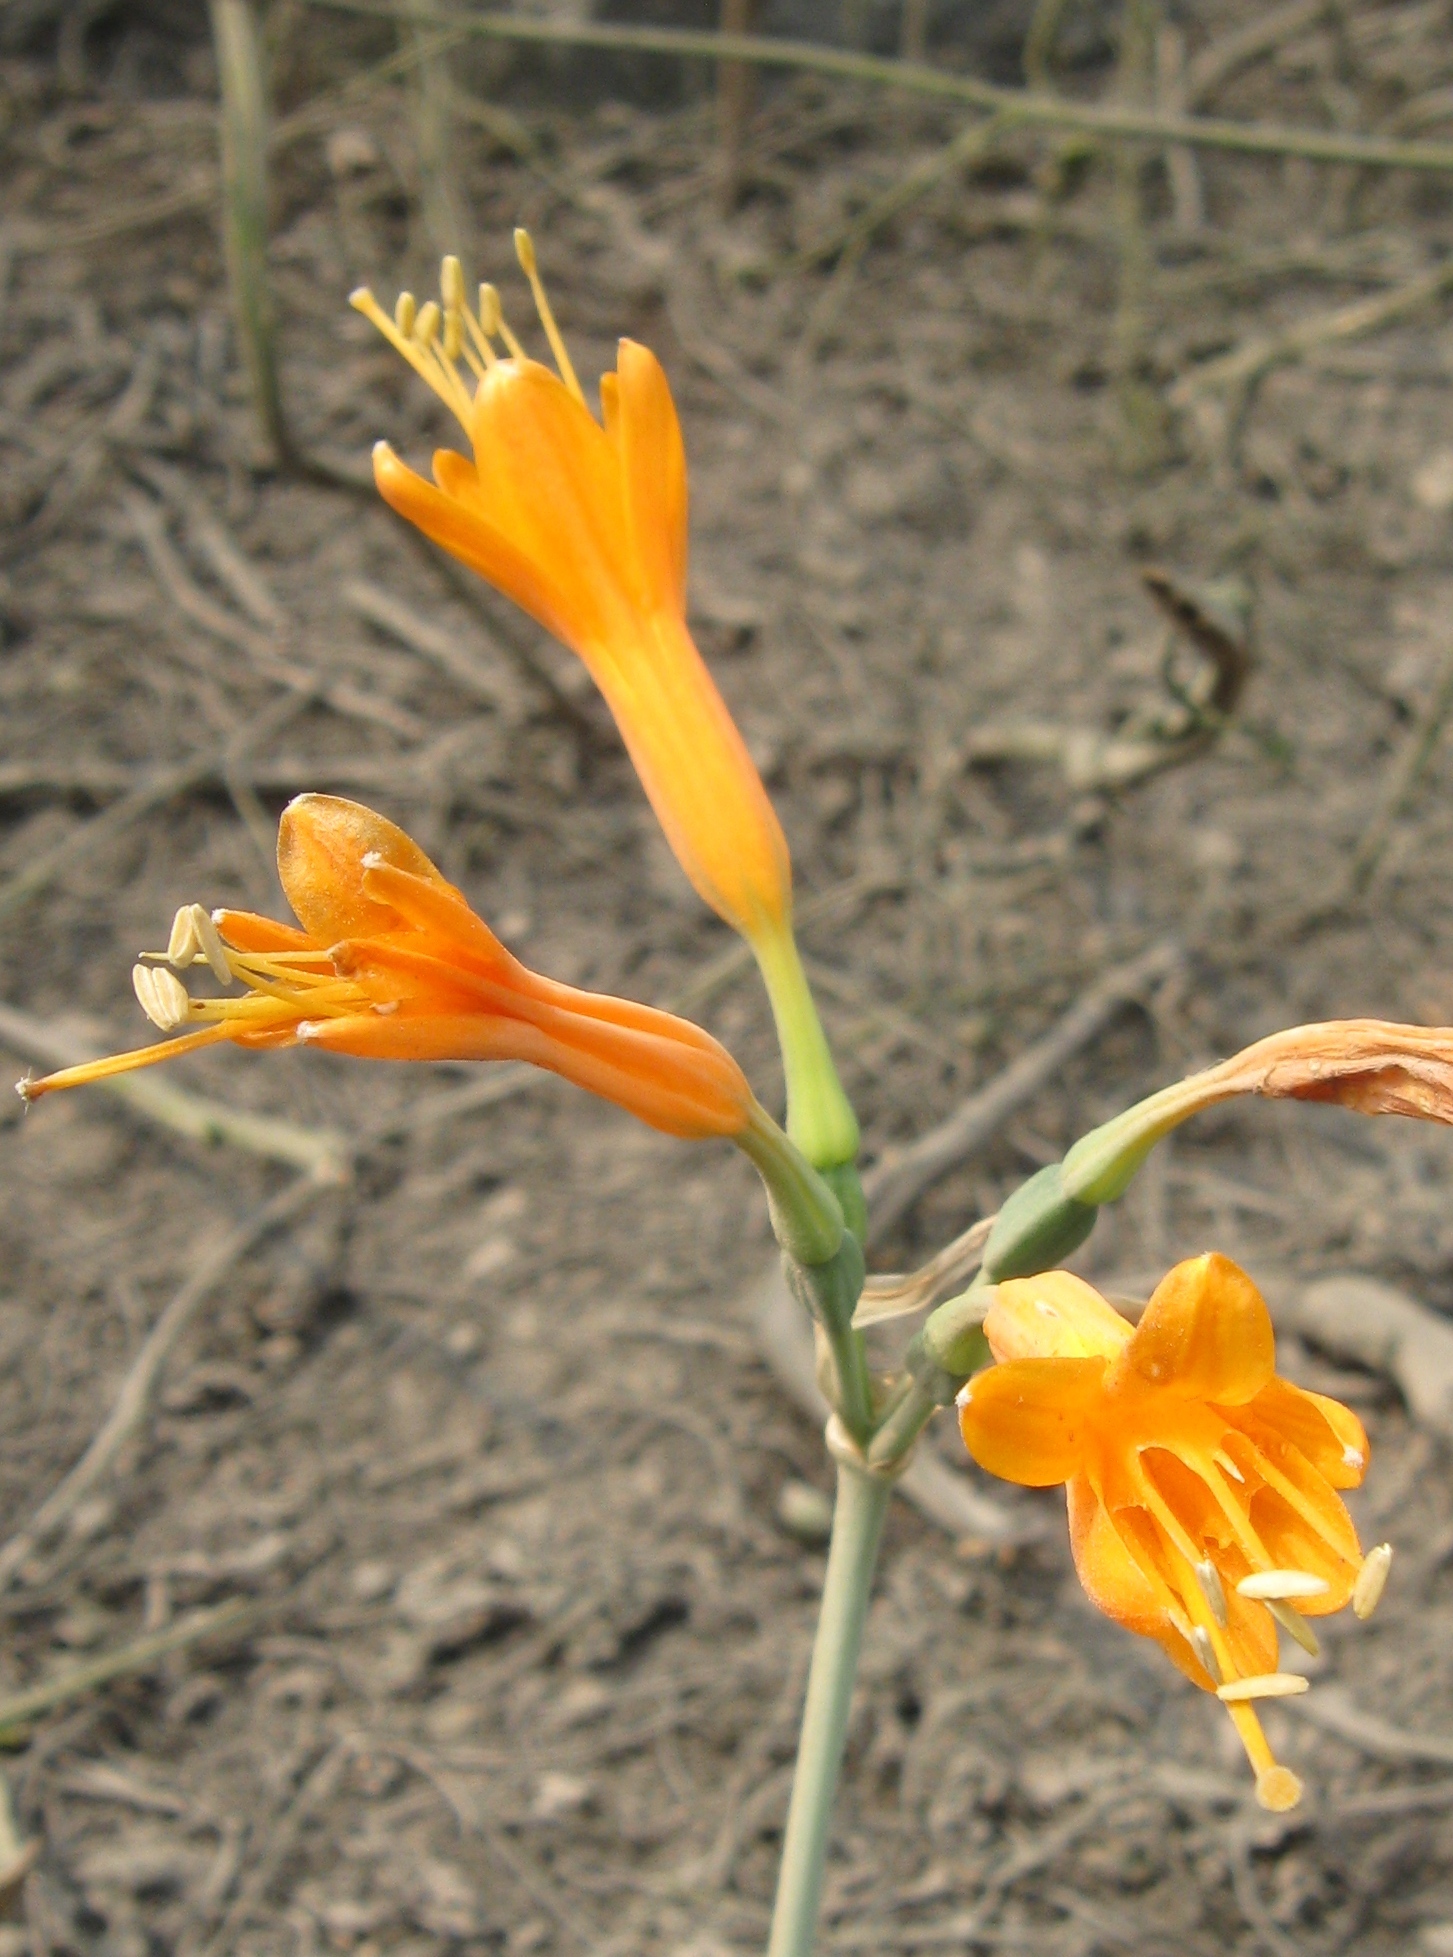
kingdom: Plantae
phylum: Tracheophyta
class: Liliopsida
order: Asparagales
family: Amaryllidaceae
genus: Stenomesson
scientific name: Stenomesson flavum
